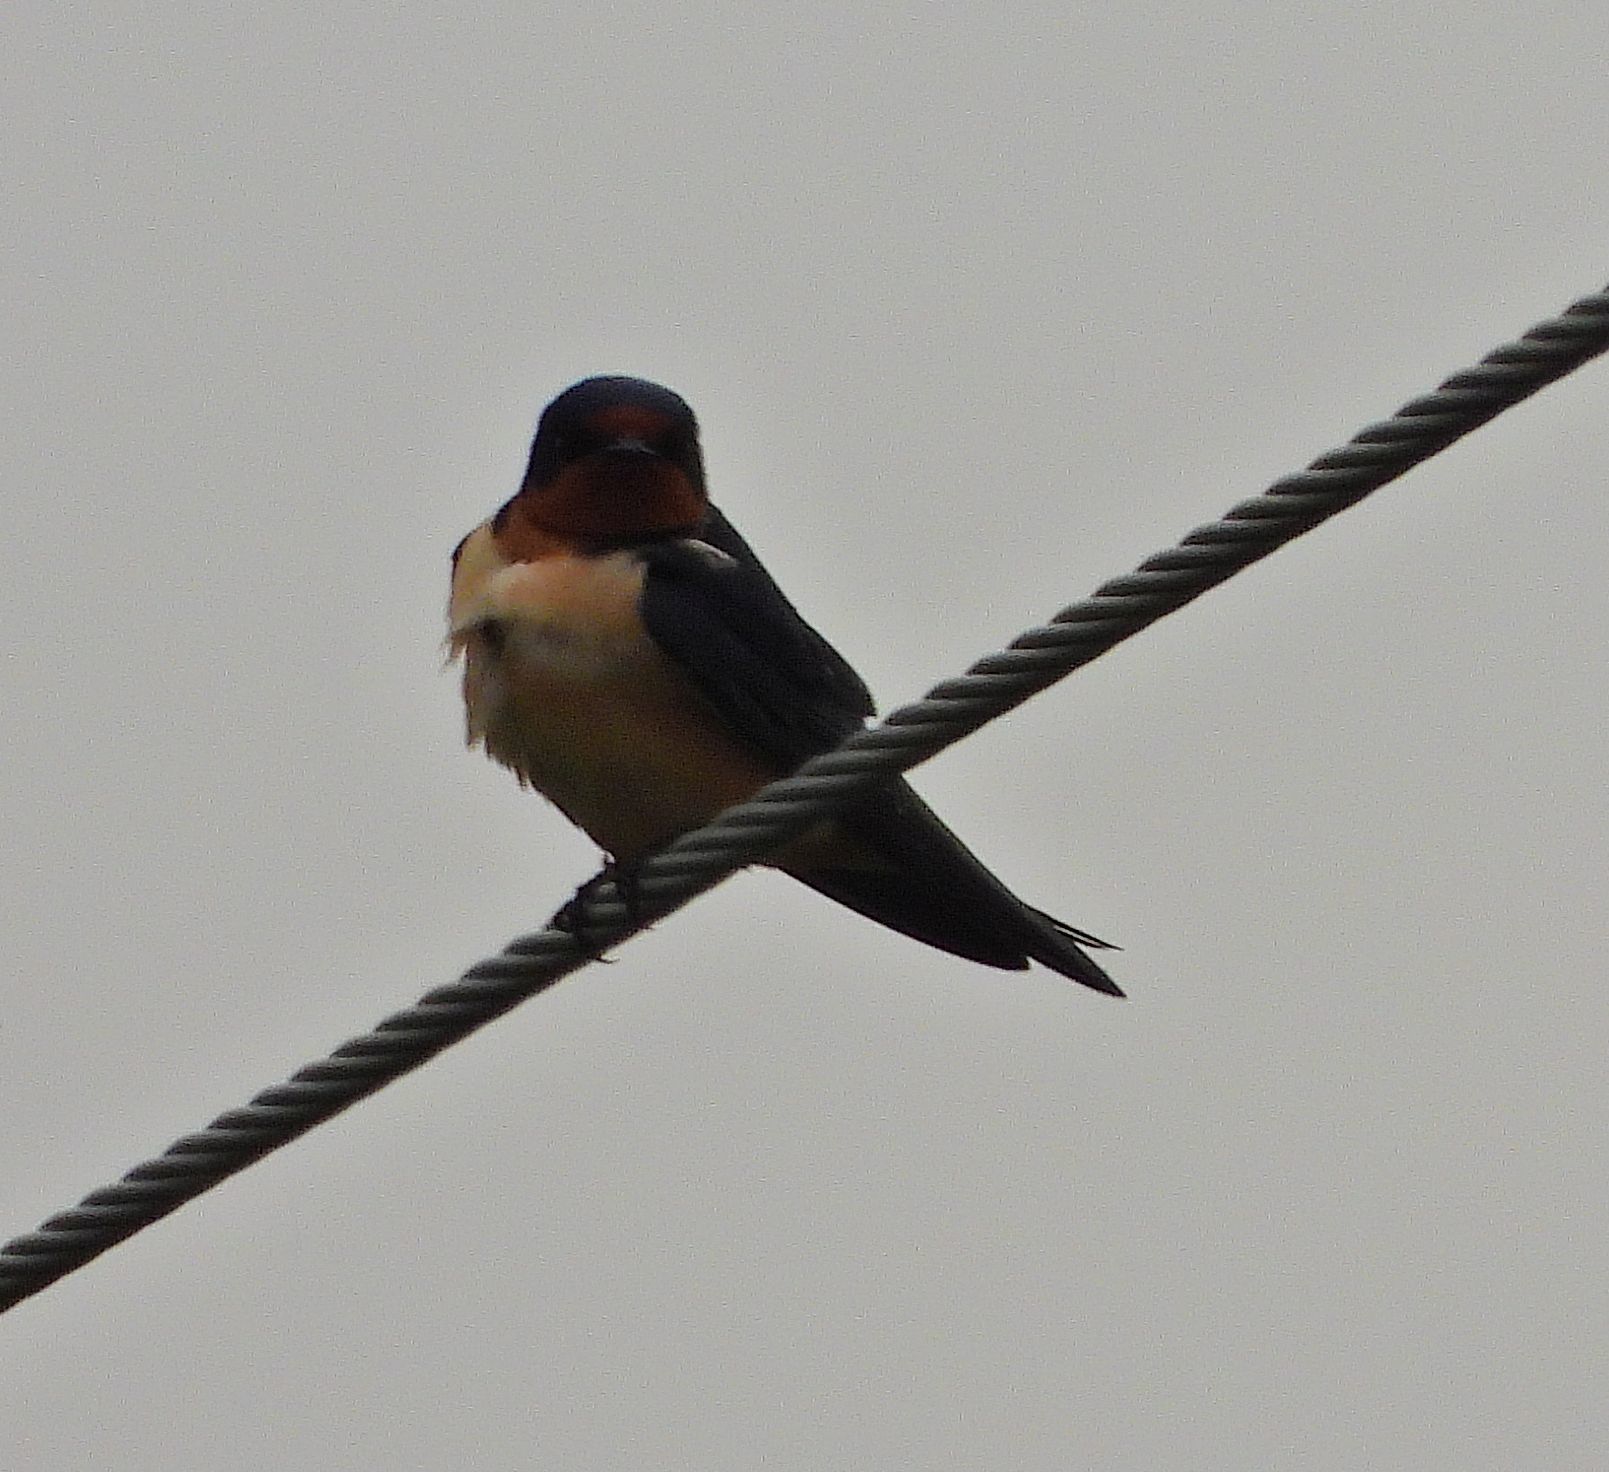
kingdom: Animalia
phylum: Chordata
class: Aves
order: Passeriformes
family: Hirundinidae
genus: Hirundo
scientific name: Hirundo rustica
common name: Barn swallow
